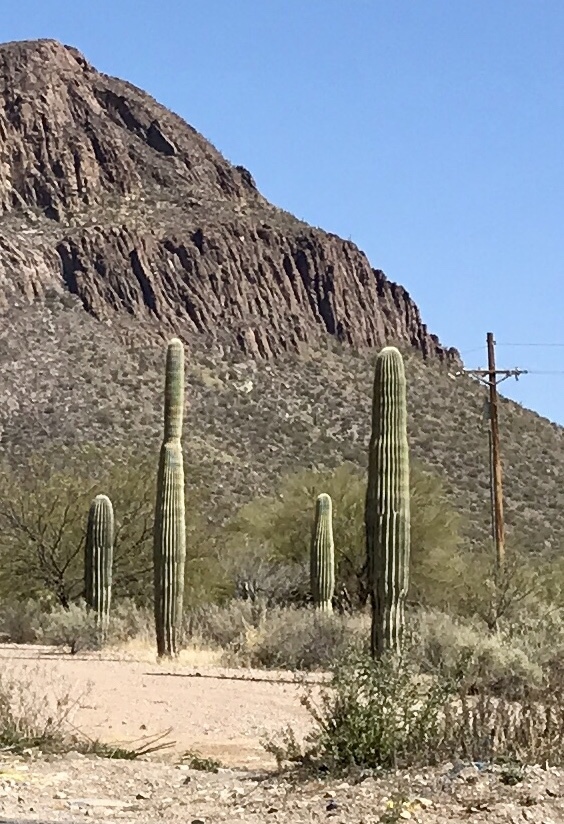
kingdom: Plantae
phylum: Tracheophyta
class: Magnoliopsida
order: Caryophyllales
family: Cactaceae
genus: Carnegiea
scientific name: Carnegiea gigantea
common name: Saguaro
